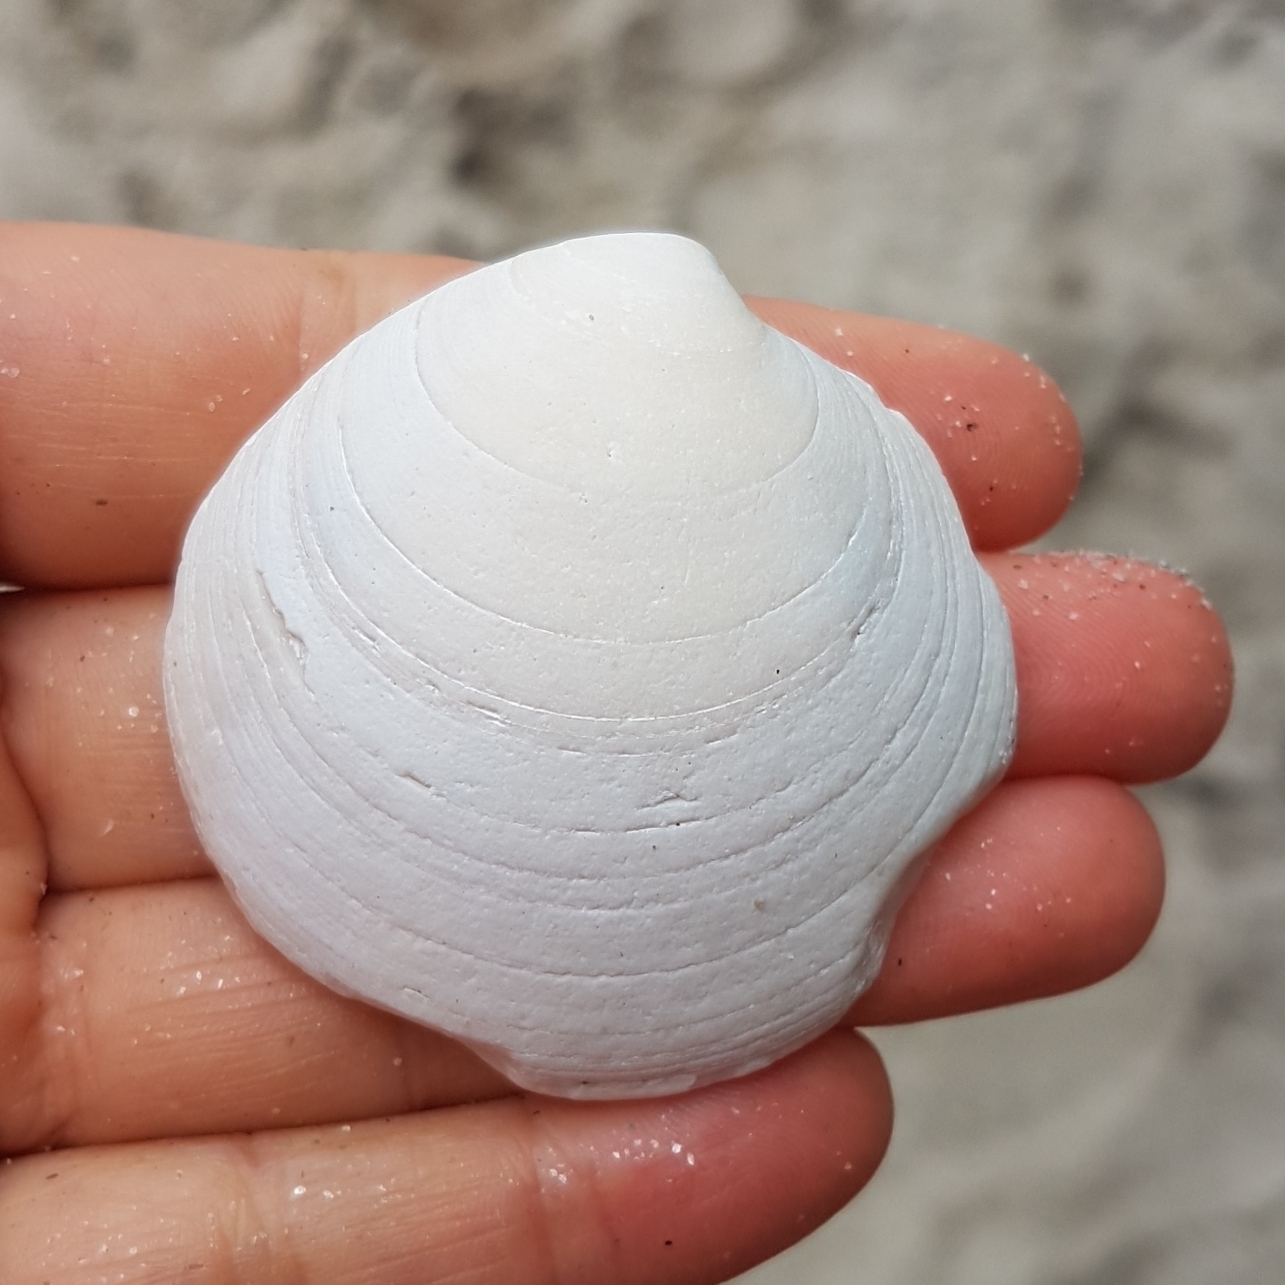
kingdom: Animalia
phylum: Mollusca
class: Bivalvia
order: Venerida
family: Veneridae
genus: Dosinia
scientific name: Dosinia exoleta
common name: Rayed artemis
